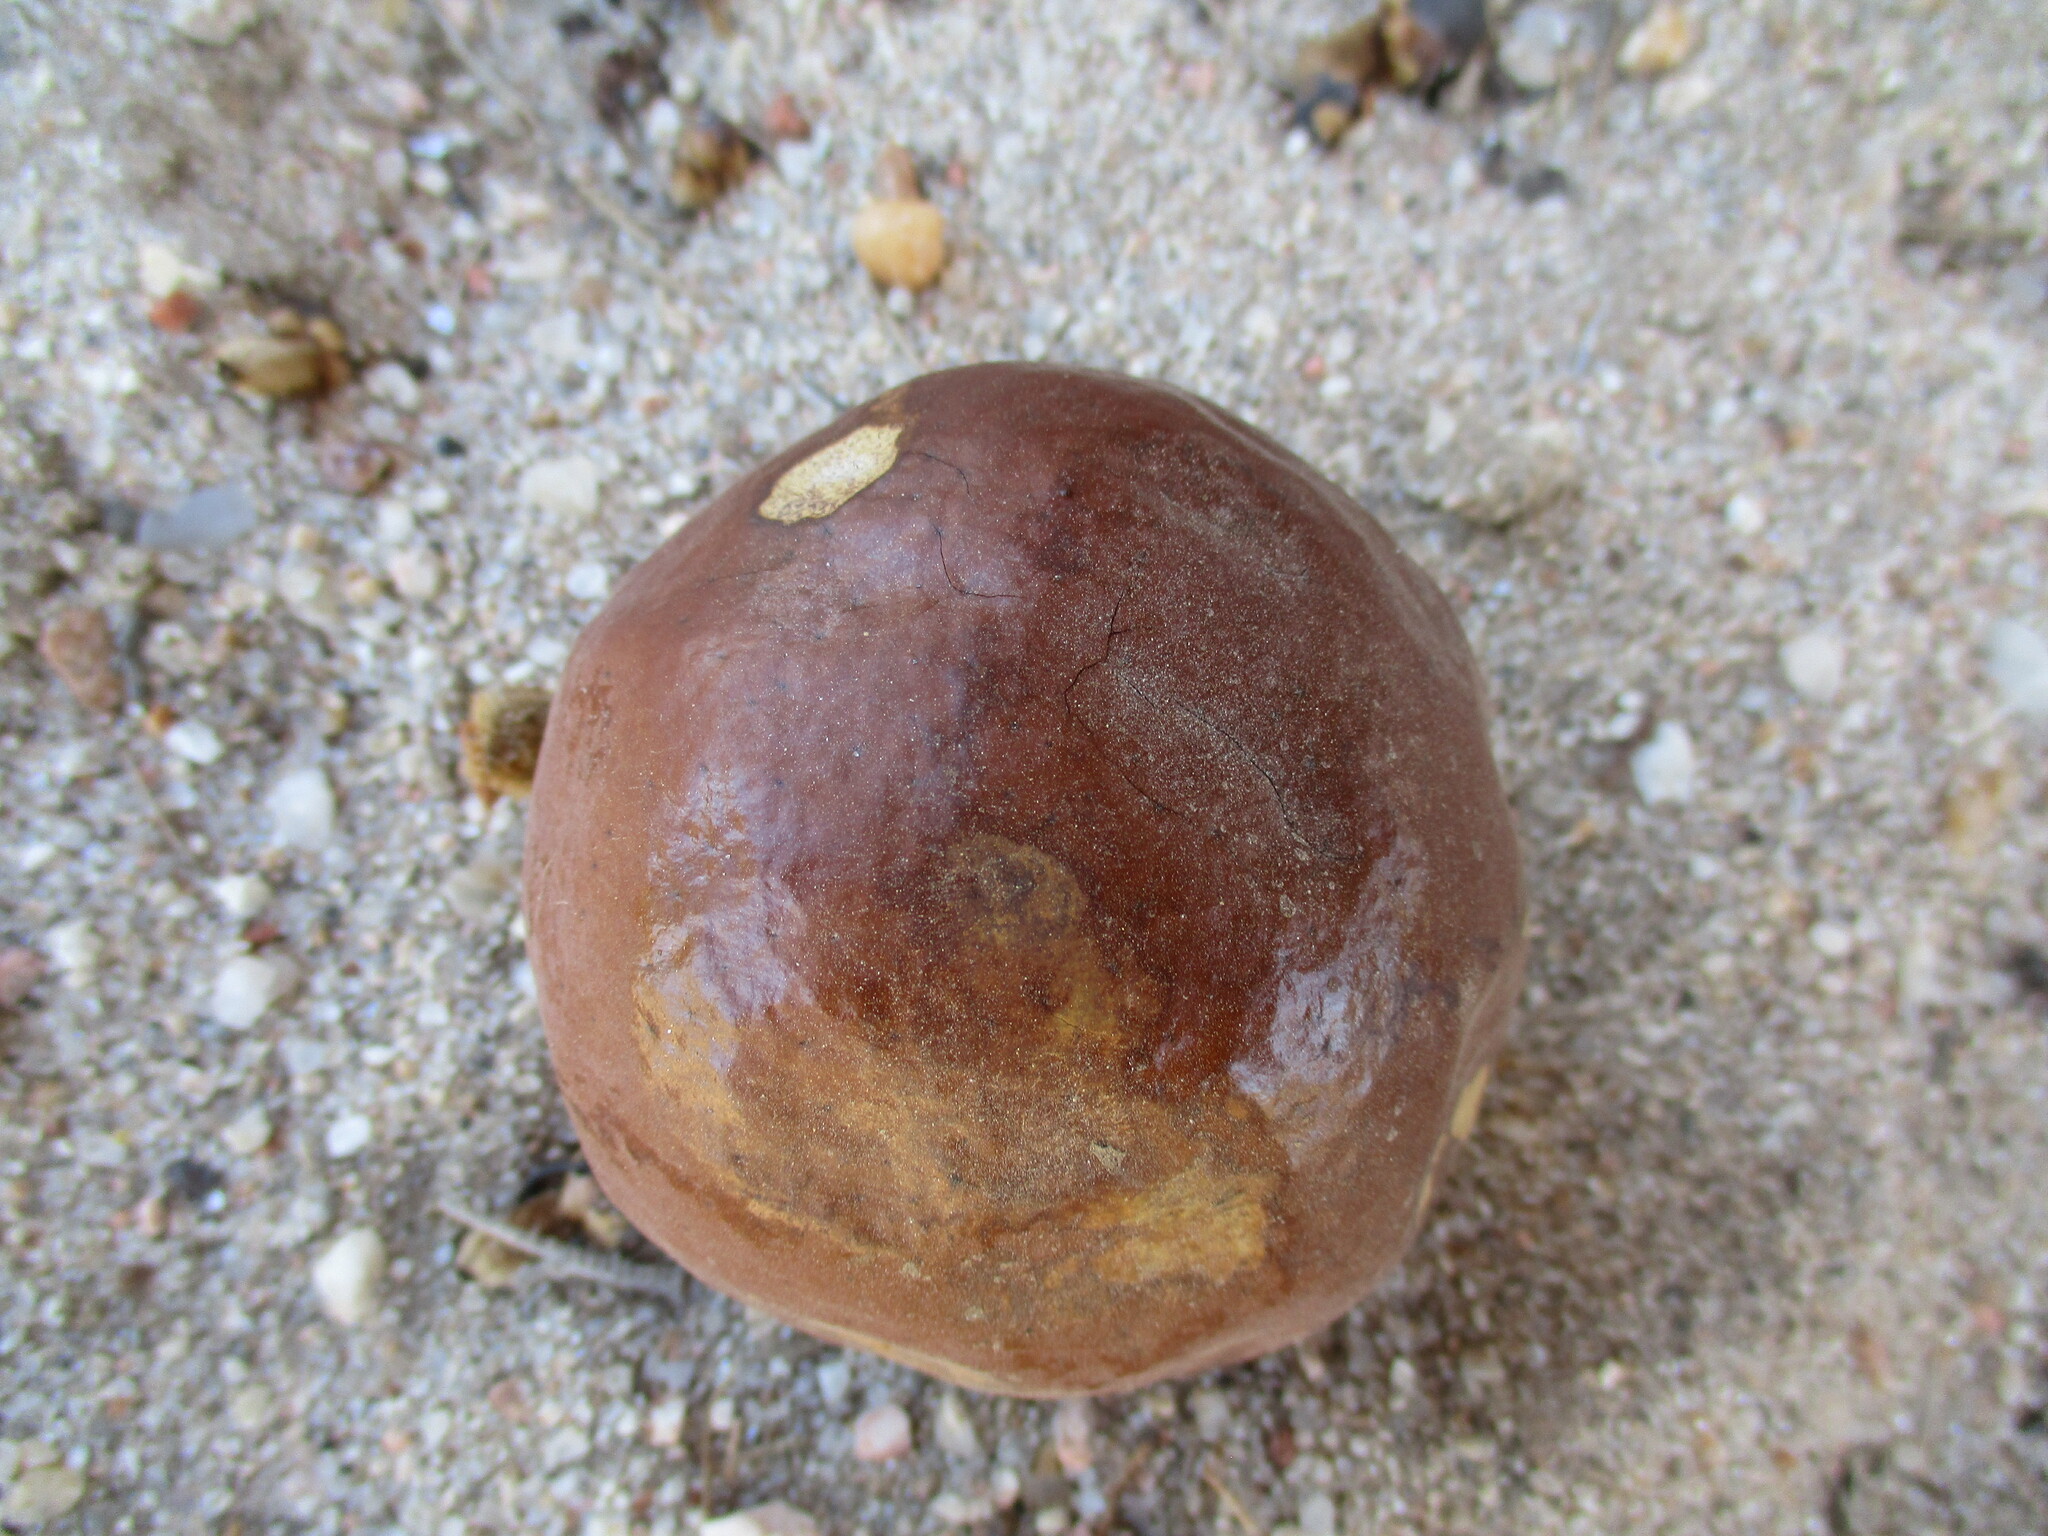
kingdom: Plantae
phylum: Tracheophyta
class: Liliopsida
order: Arecales
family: Arecaceae
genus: Hyphaene
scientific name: Hyphaene petersiana
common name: African ivory nut palm
